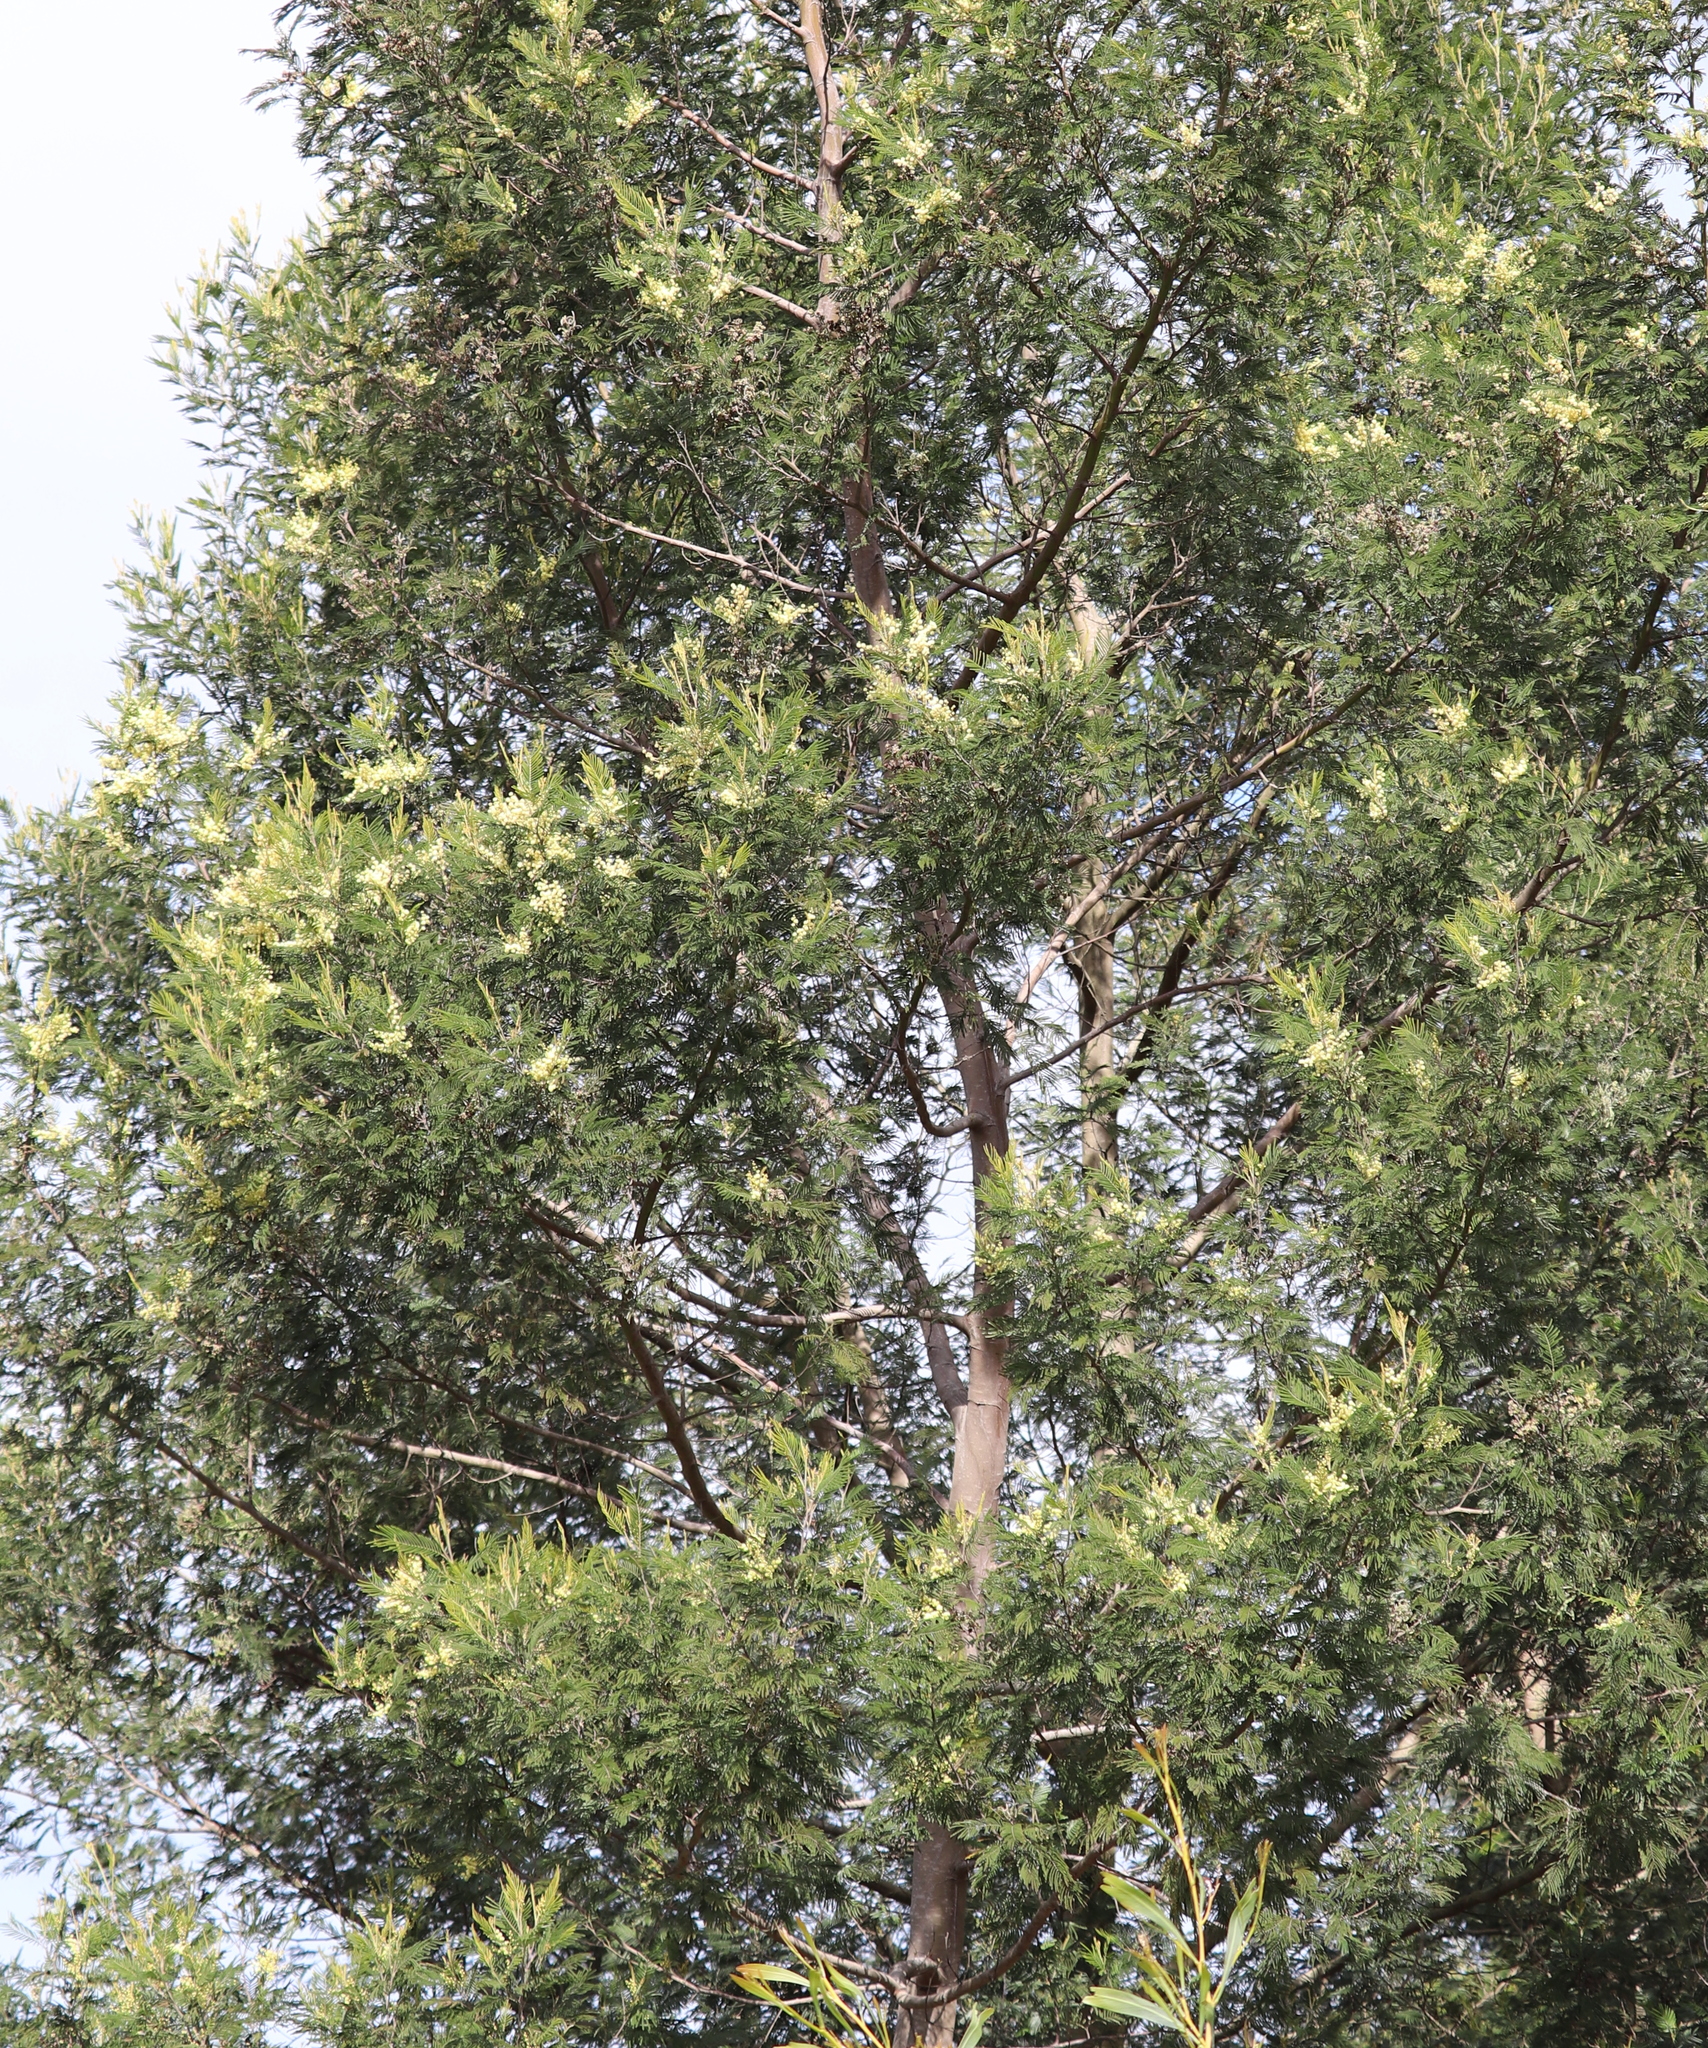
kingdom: Plantae
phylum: Tracheophyta
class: Magnoliopsida
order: Fabales
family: Fabaceae
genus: Acacia
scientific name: Acacia mearnsii
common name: Black wattle
